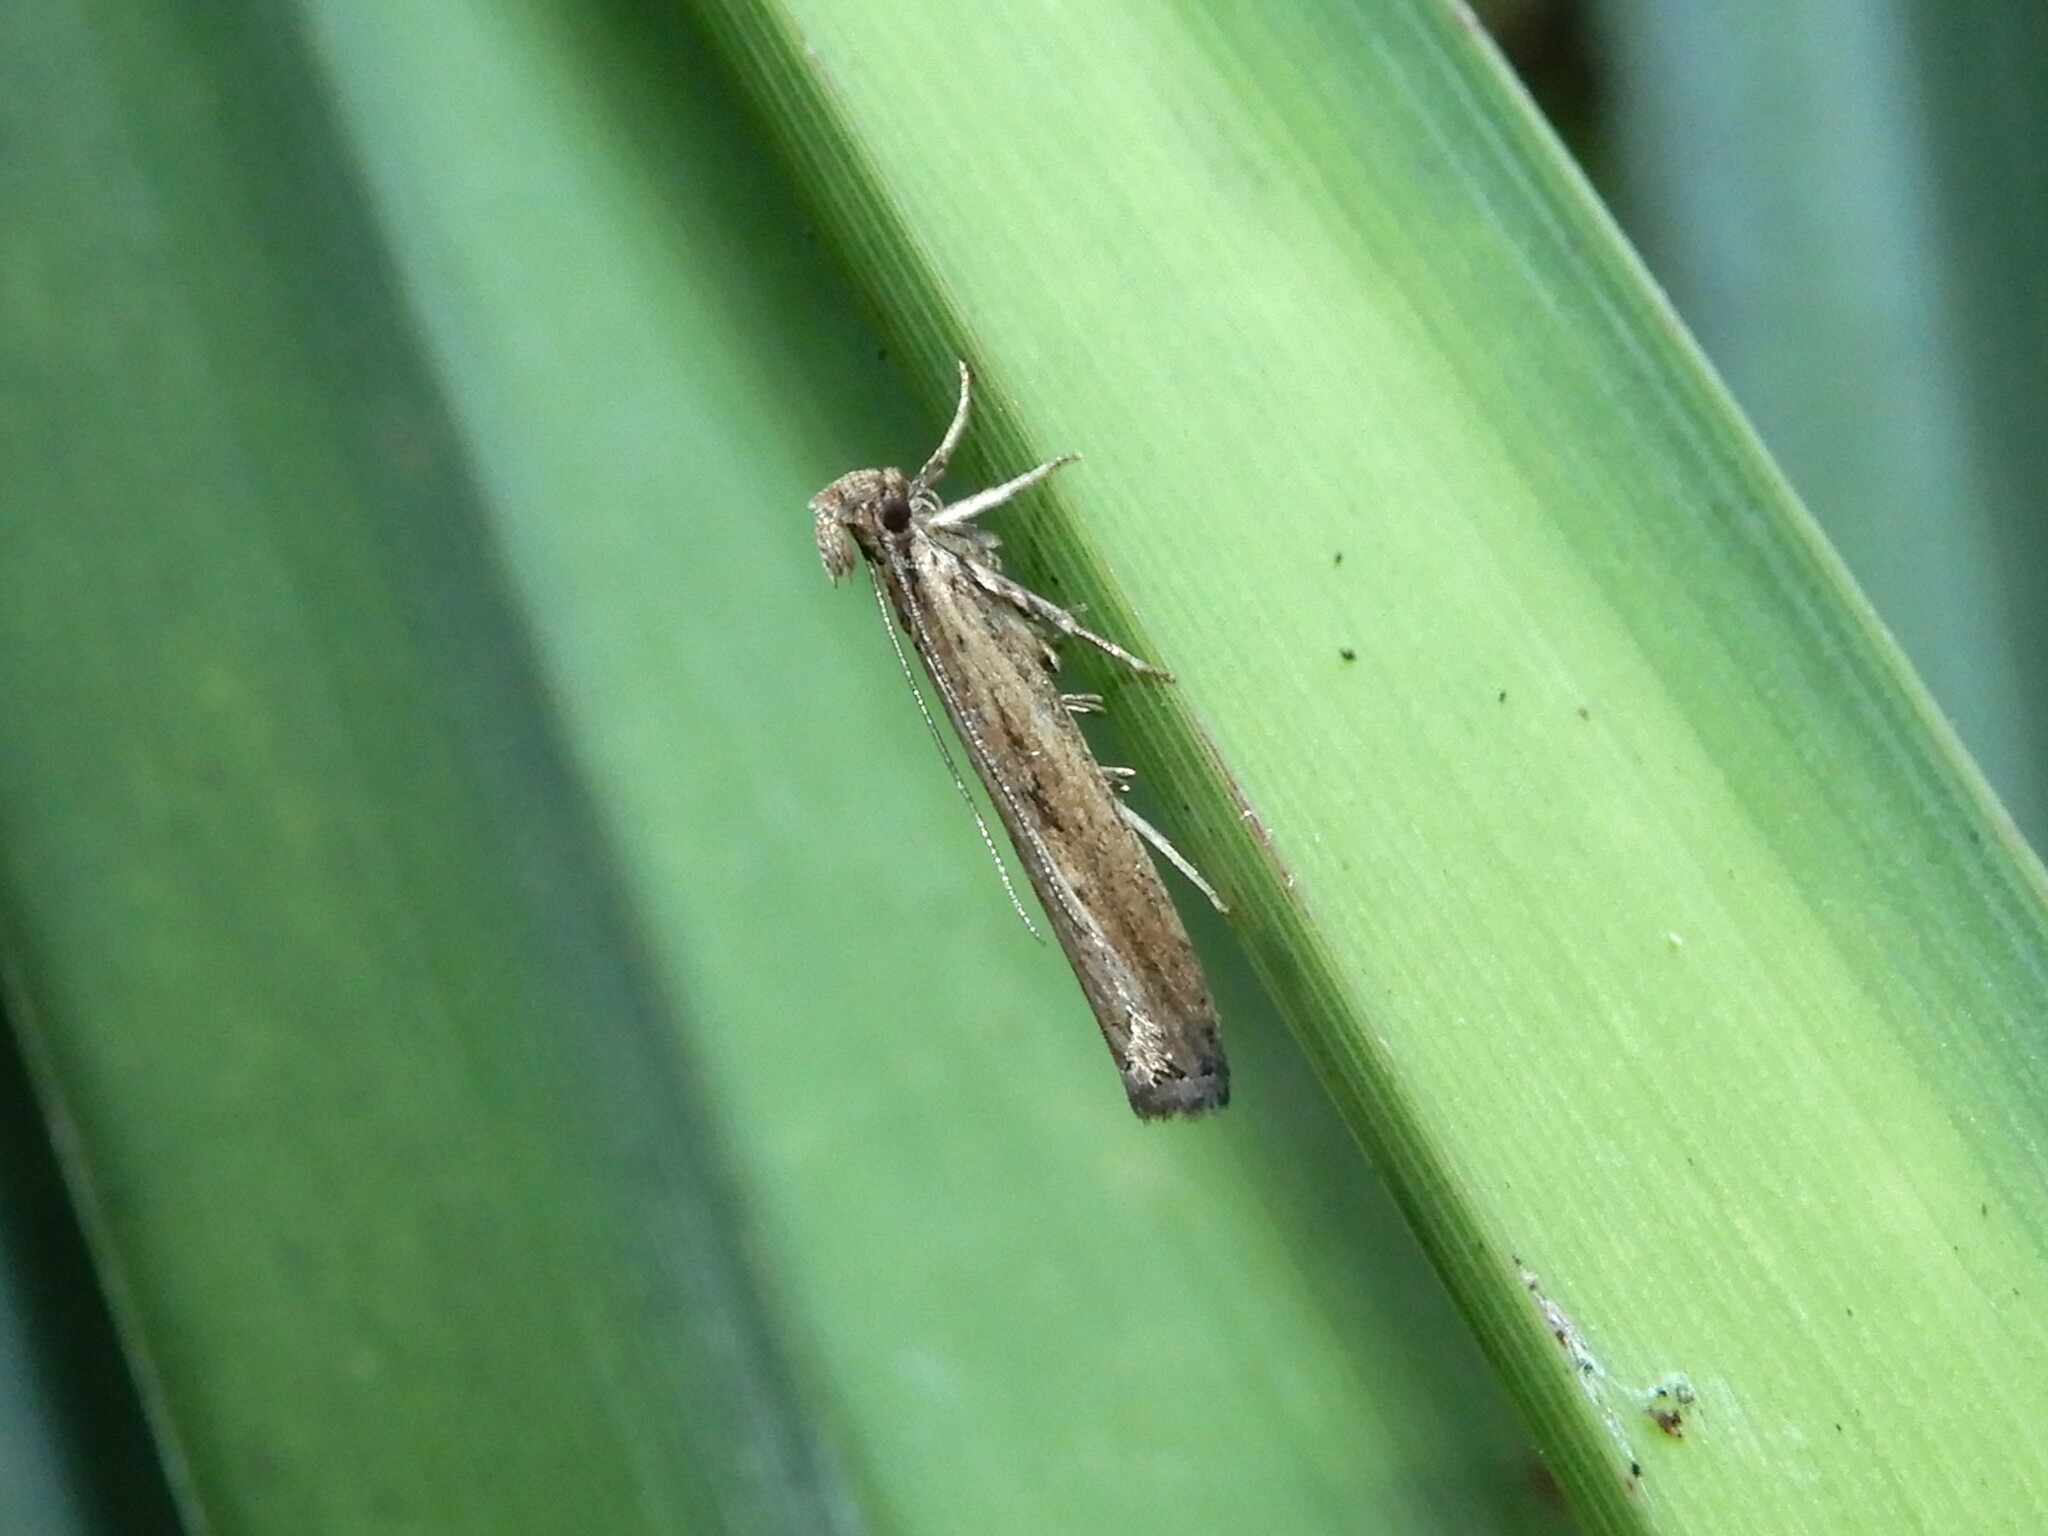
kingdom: Animalia
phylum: Arthropoda
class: Insecta
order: Lepidoptera
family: Gelechiidae
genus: Helcystogramma
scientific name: Helcystogramma phryganitis
